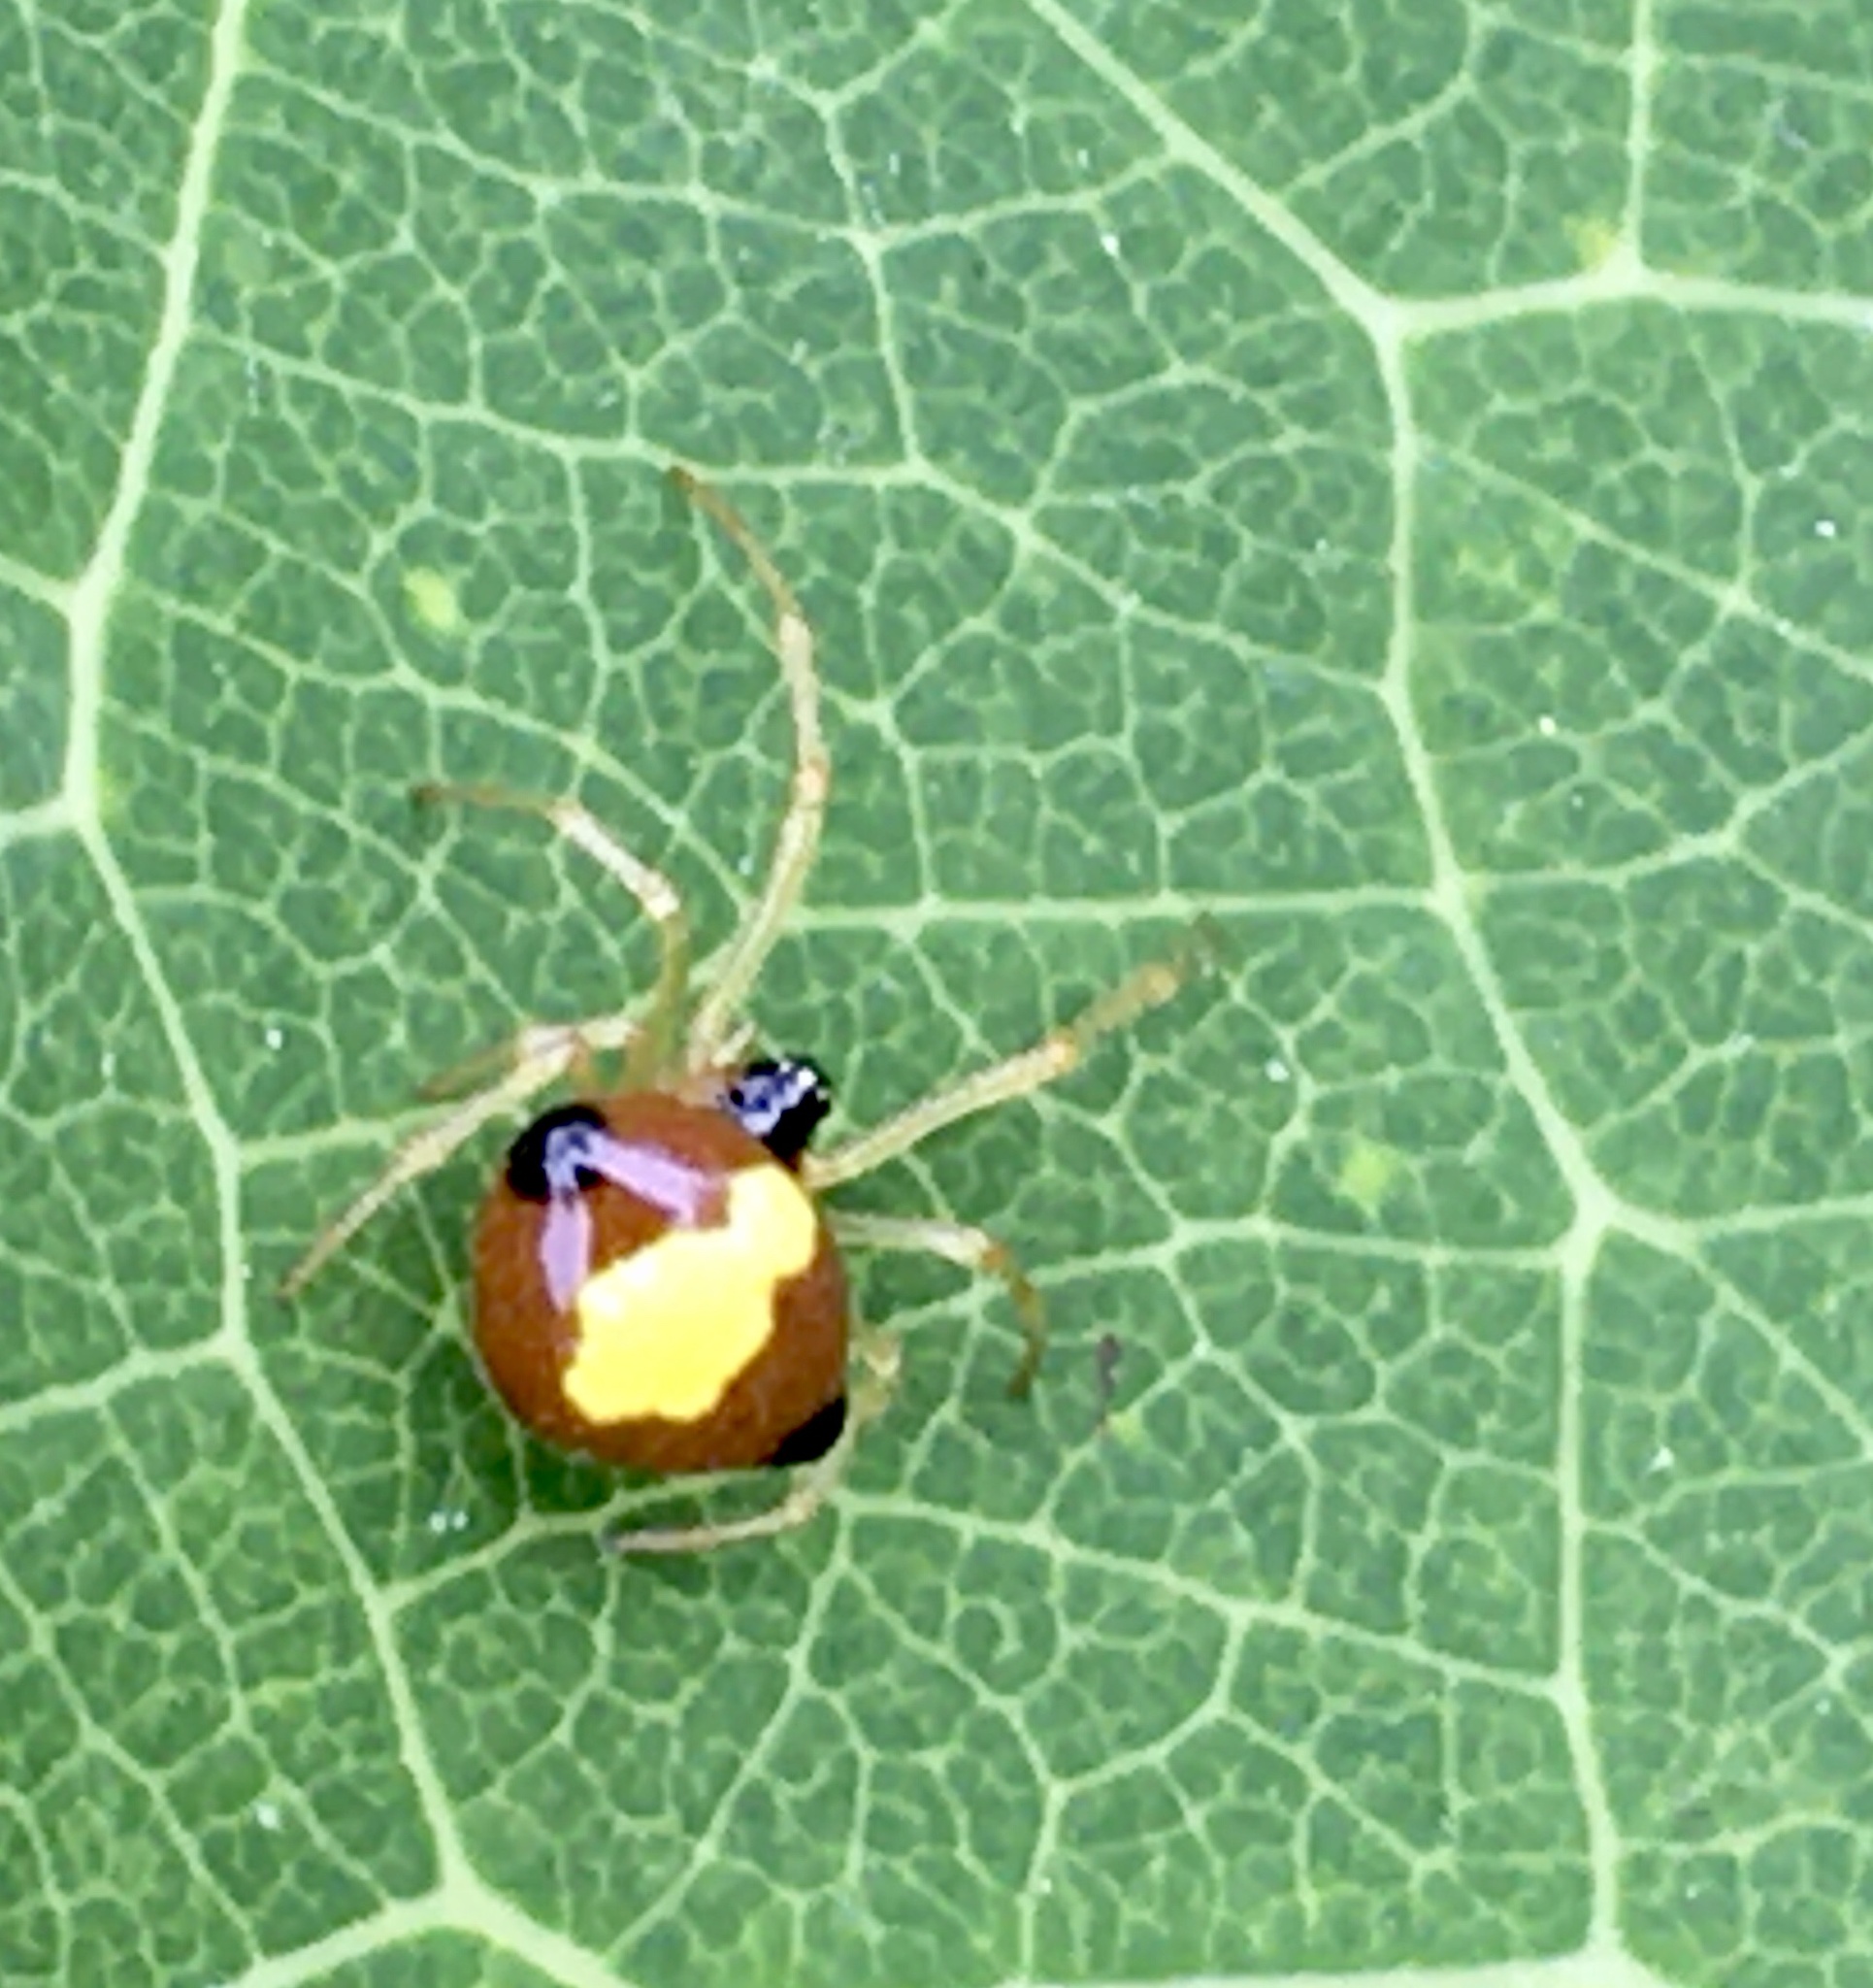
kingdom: Animalia
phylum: Arthropoda
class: Arachnida
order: Araneae
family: Theridiidae
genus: Theridula
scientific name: Theridula emertoni
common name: Emerton's bitubercled cobweaver
